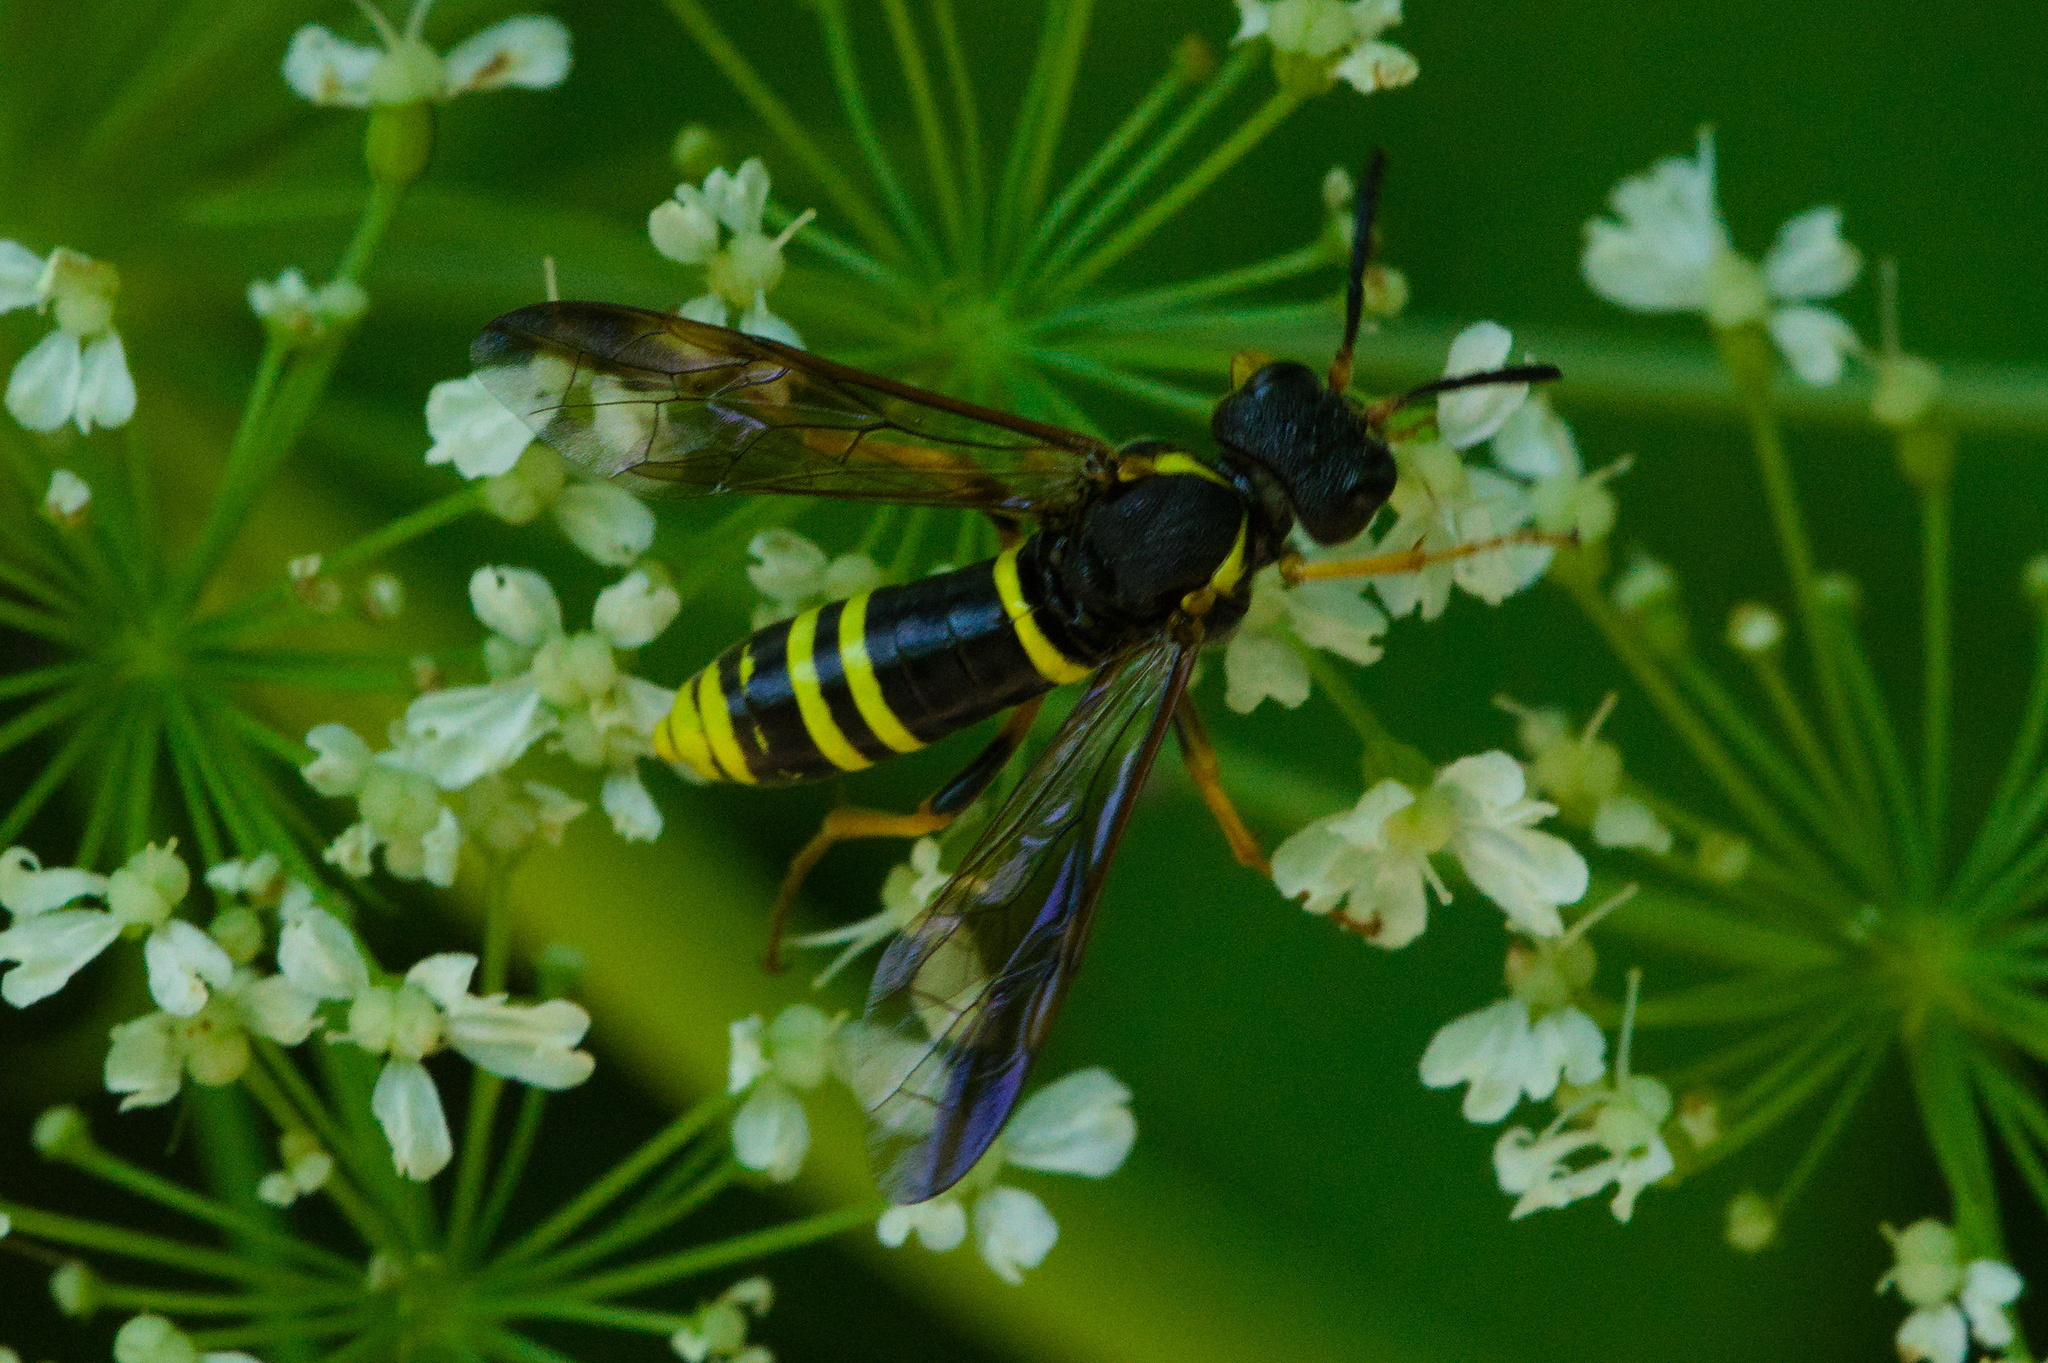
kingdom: Animalia
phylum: Arthropoda
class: Insecta
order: Hymenoptera
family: Tenthredinidae
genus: Tenthredo
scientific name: Tenthredo vespa
